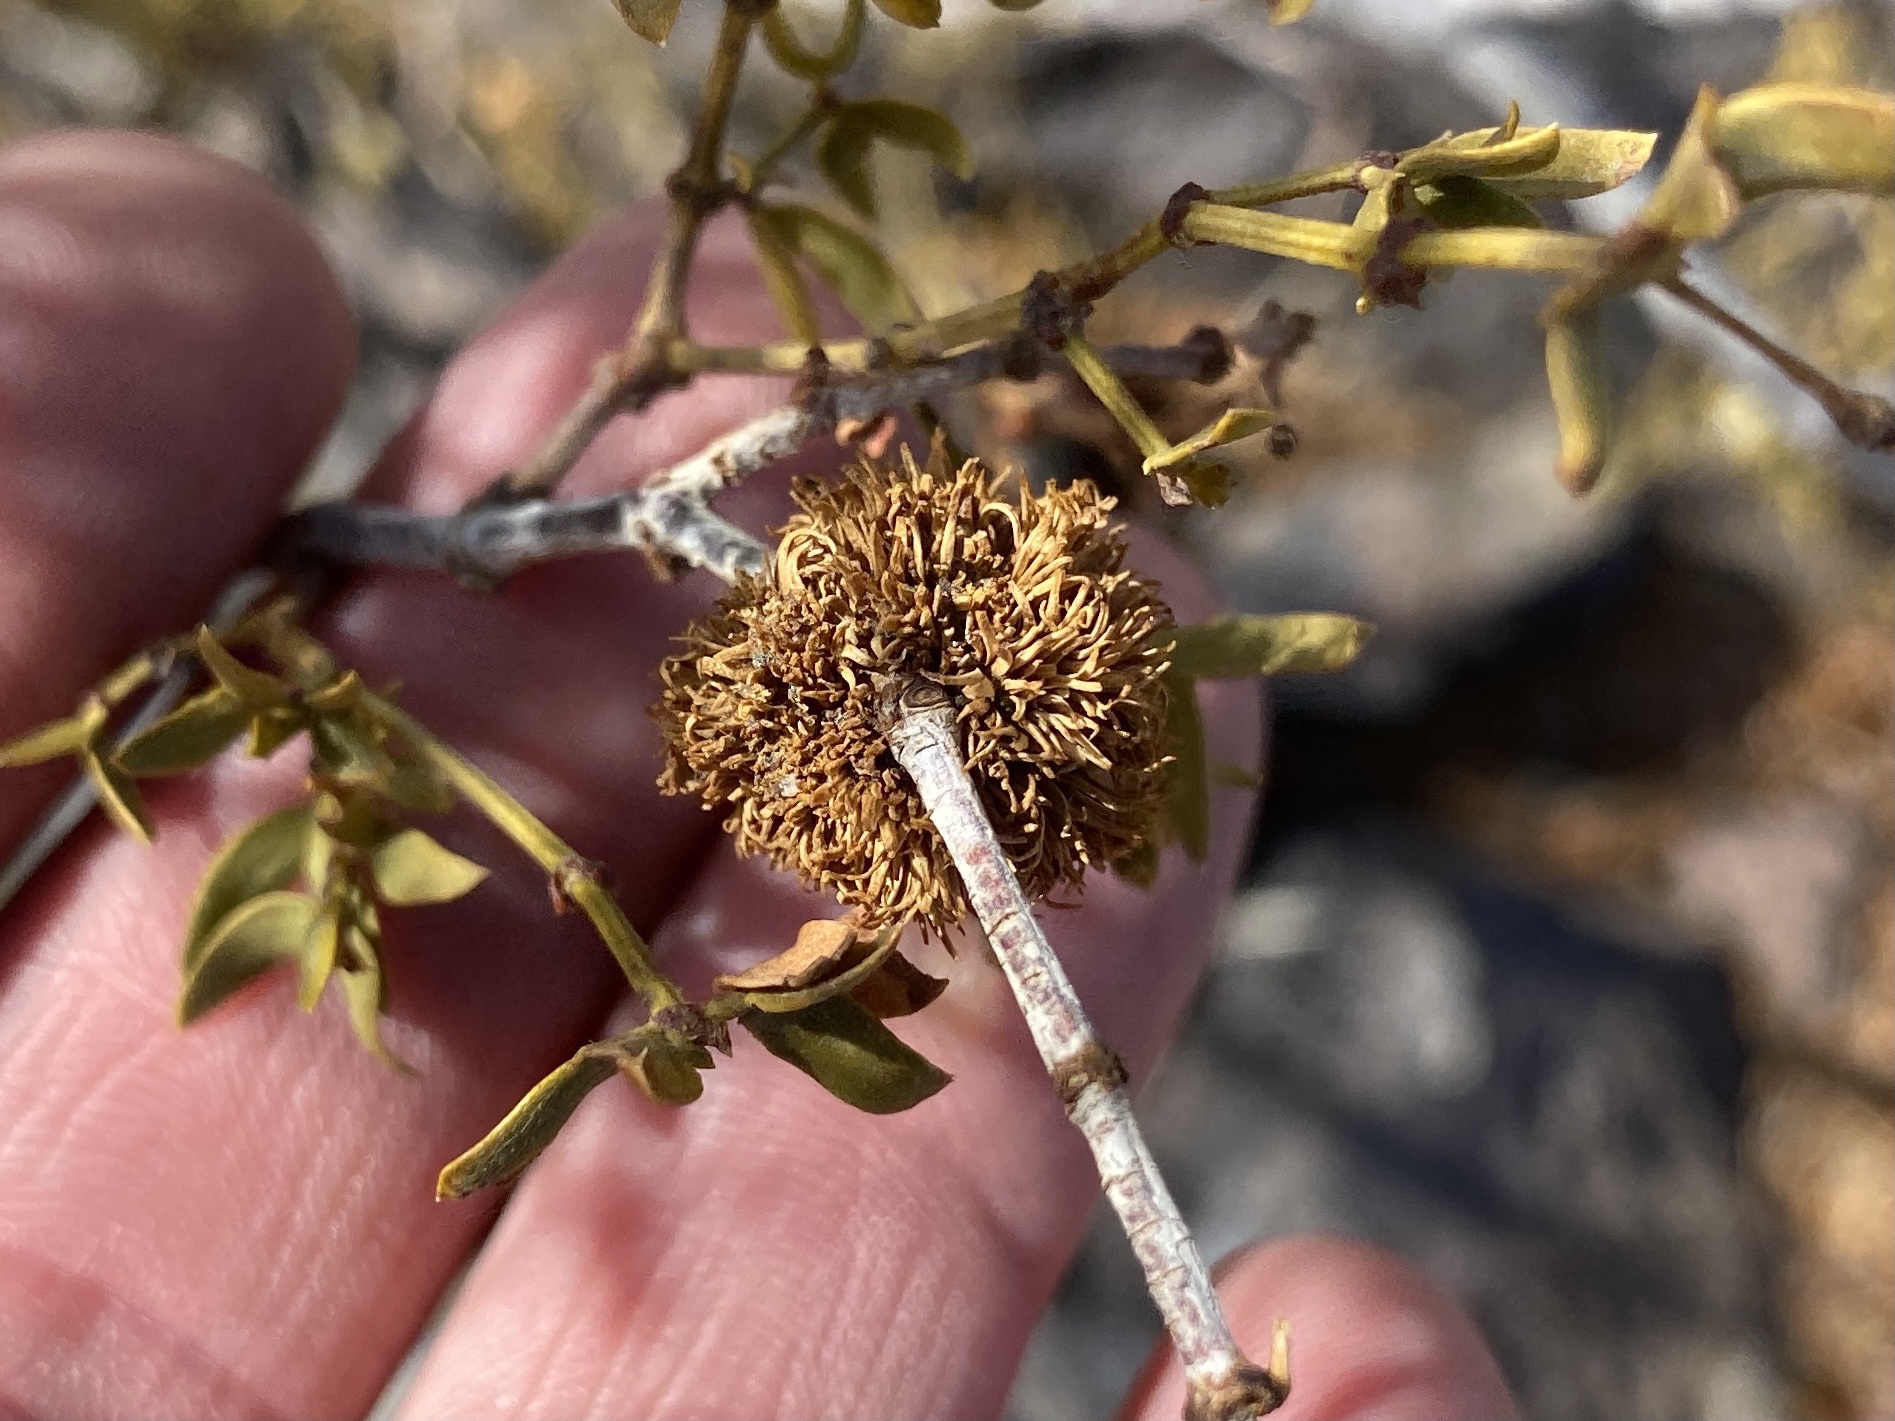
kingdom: Animalia
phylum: Arthropoda
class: Insecta
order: Diptera
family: Cecidomyiidae
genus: Asphondylia
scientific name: Asphondylia auripila
